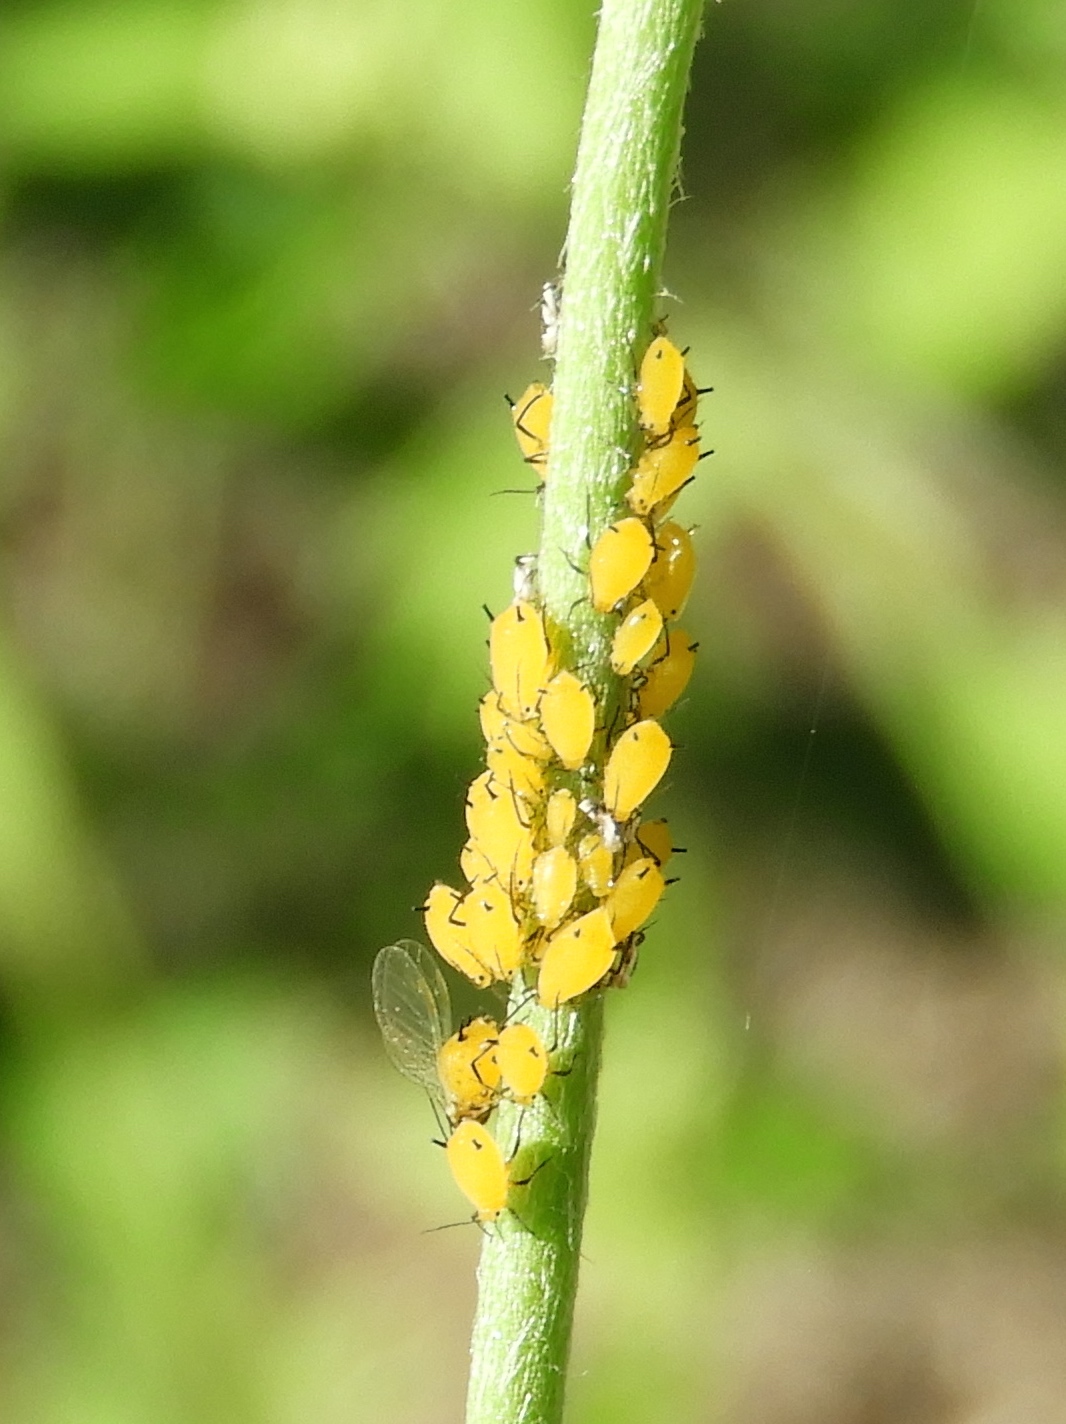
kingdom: Animalia
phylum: Arthropoda
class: Insecta
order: Hemiptera
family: Aphididae
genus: Aphis
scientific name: Aphis nerii
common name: Oleander aphid
